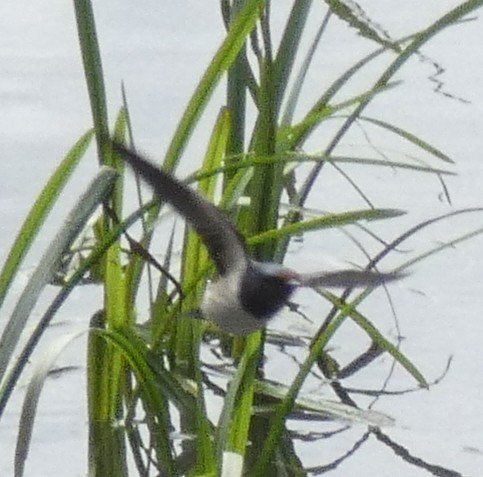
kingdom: Animalia
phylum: Chordata
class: Aves
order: Passeriformes
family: Hirundinidae
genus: Hirundo
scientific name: Hirundo rustica
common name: Barn swallow
